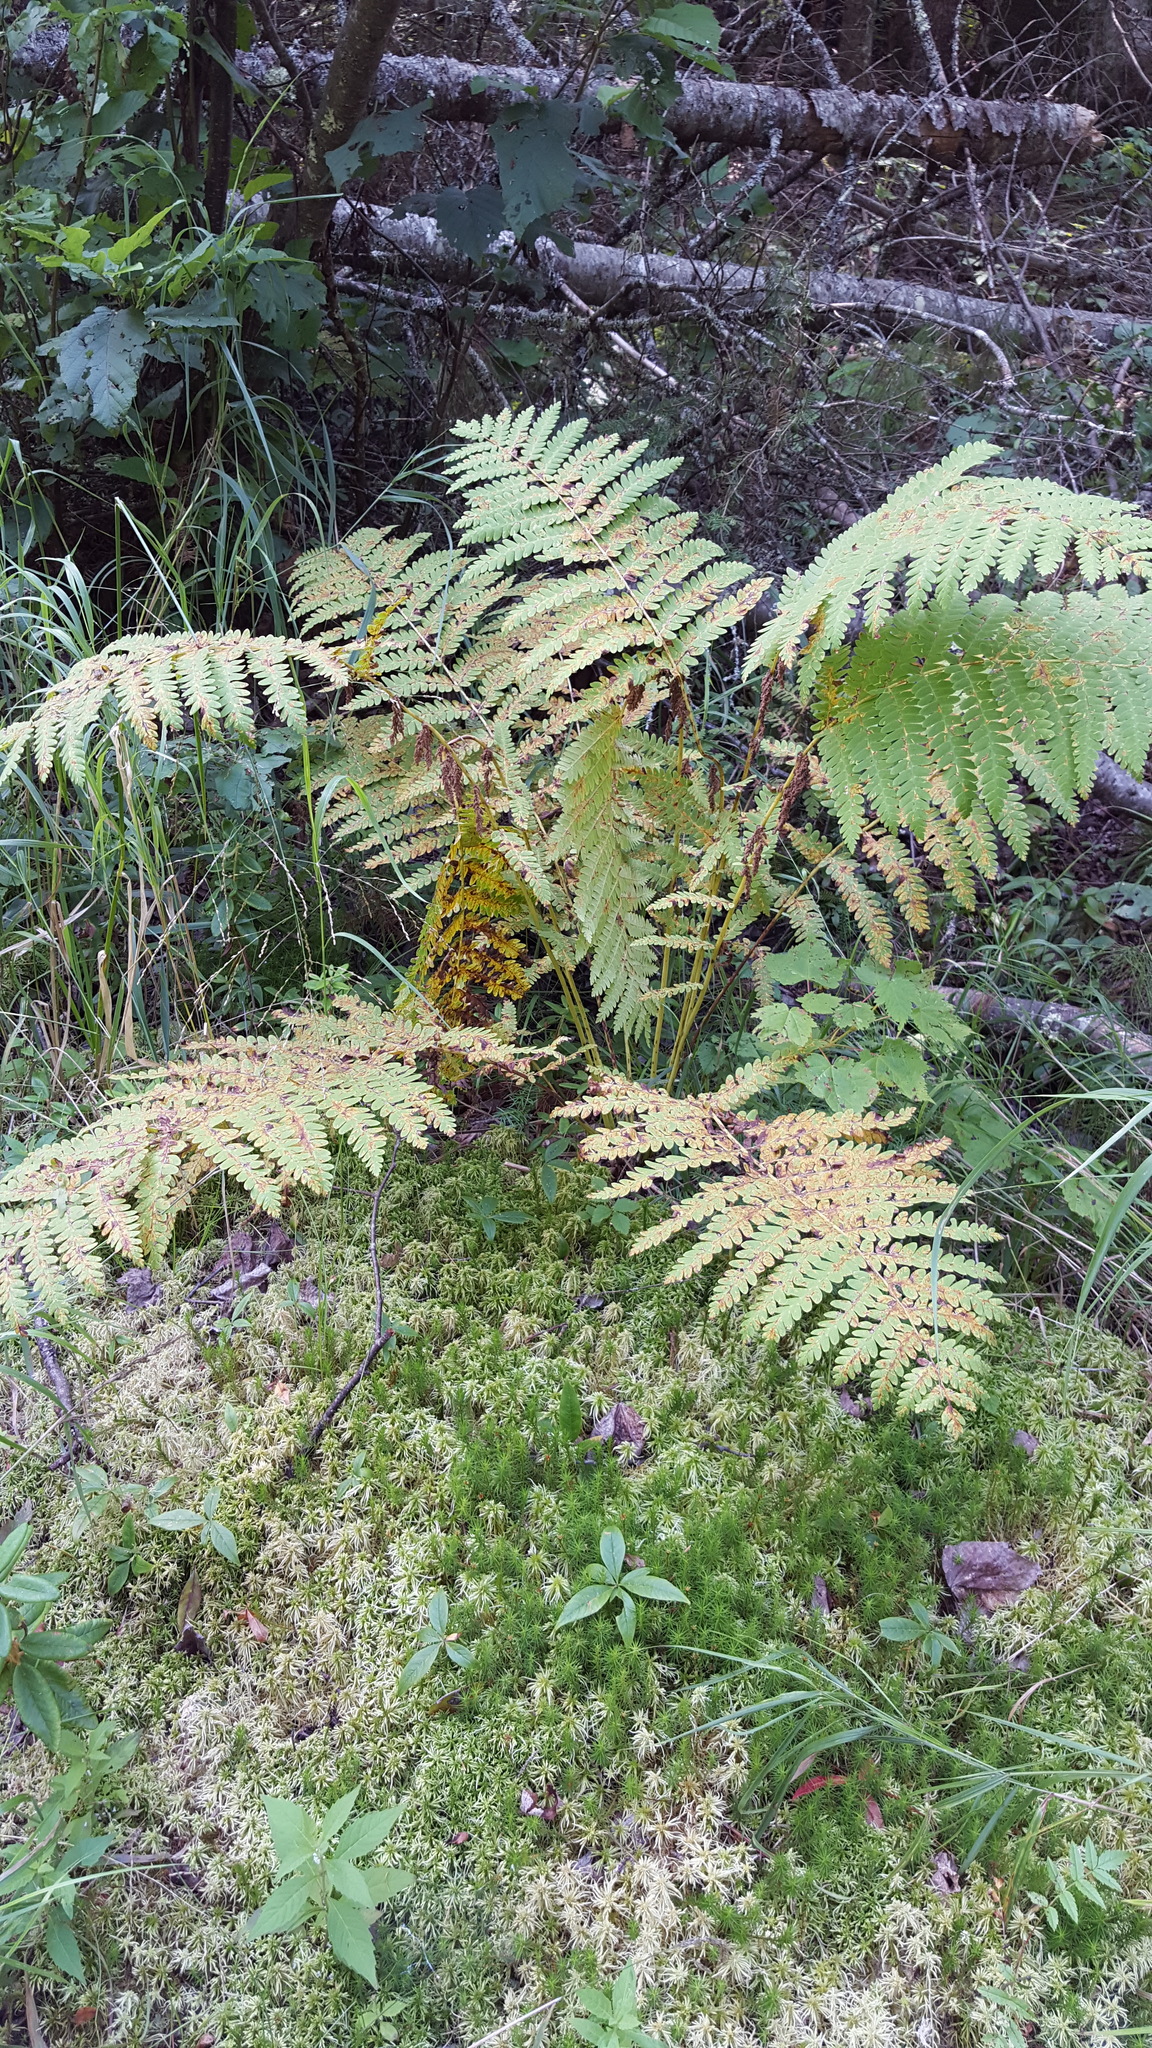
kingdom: Plantae
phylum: Tracheophyta
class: Polypodiopsida
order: Osmundales
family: Osmundaceae
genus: Claytosmunda
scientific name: Claytosmunda claytoniana
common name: Clayton's fern
